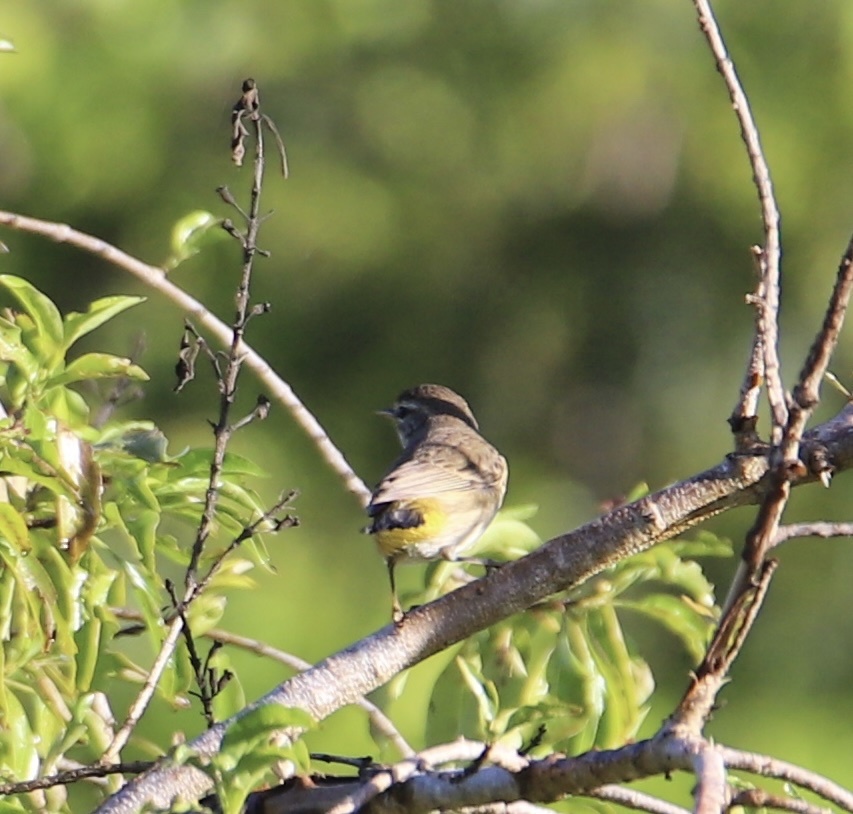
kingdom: Animalia
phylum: Chordata
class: Aves
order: Passeriformes
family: Parulidae
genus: Setophaga
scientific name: Setophaga palmarum
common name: Palm warbler
